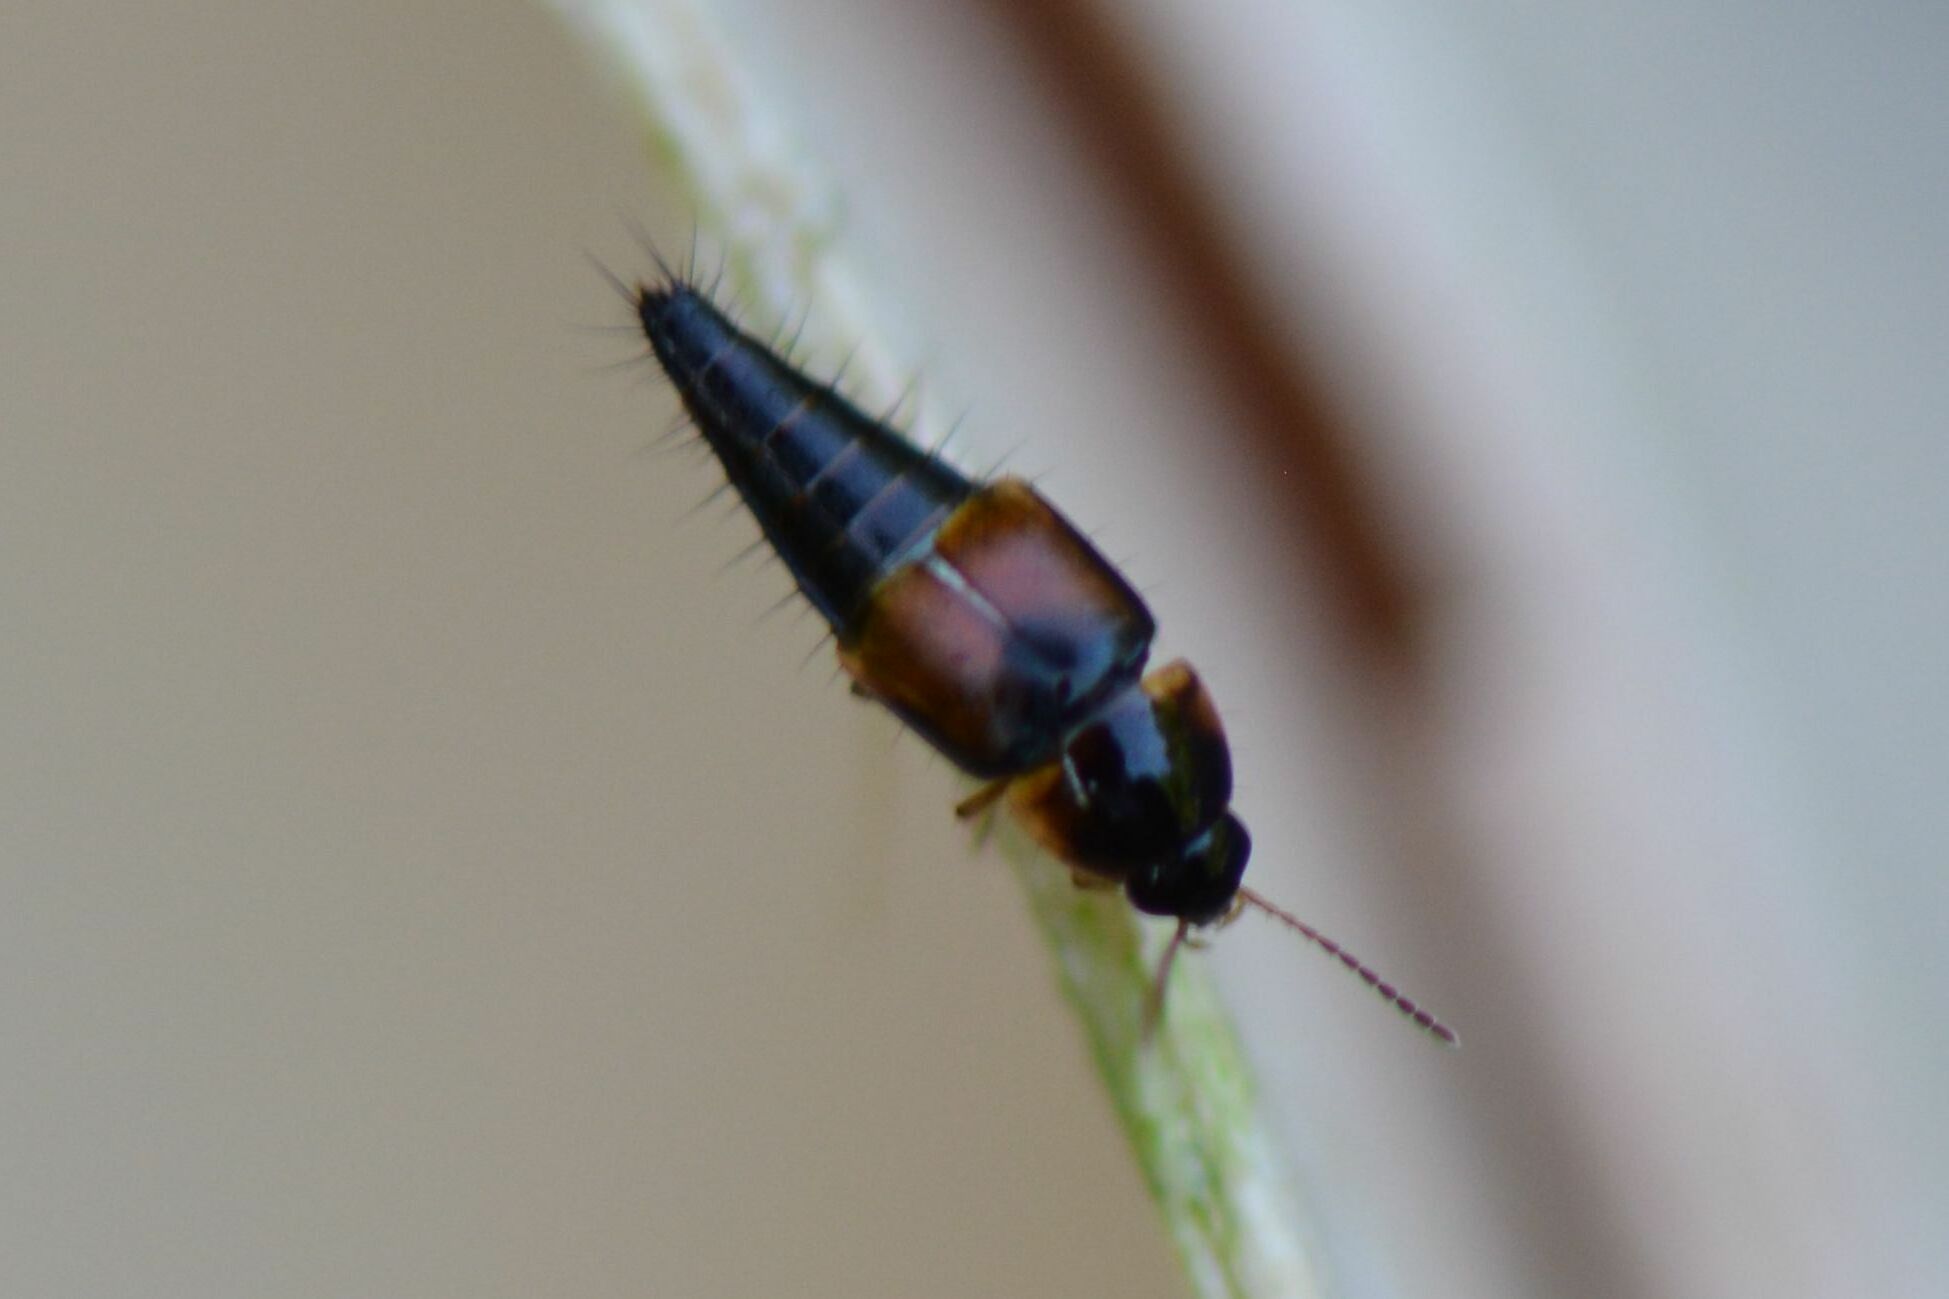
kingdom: Animalia
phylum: Arthropoda
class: Insecta
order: Coleoptera
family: Staphylinidae
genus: Tachyporus
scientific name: Tachyporus hypnorum
